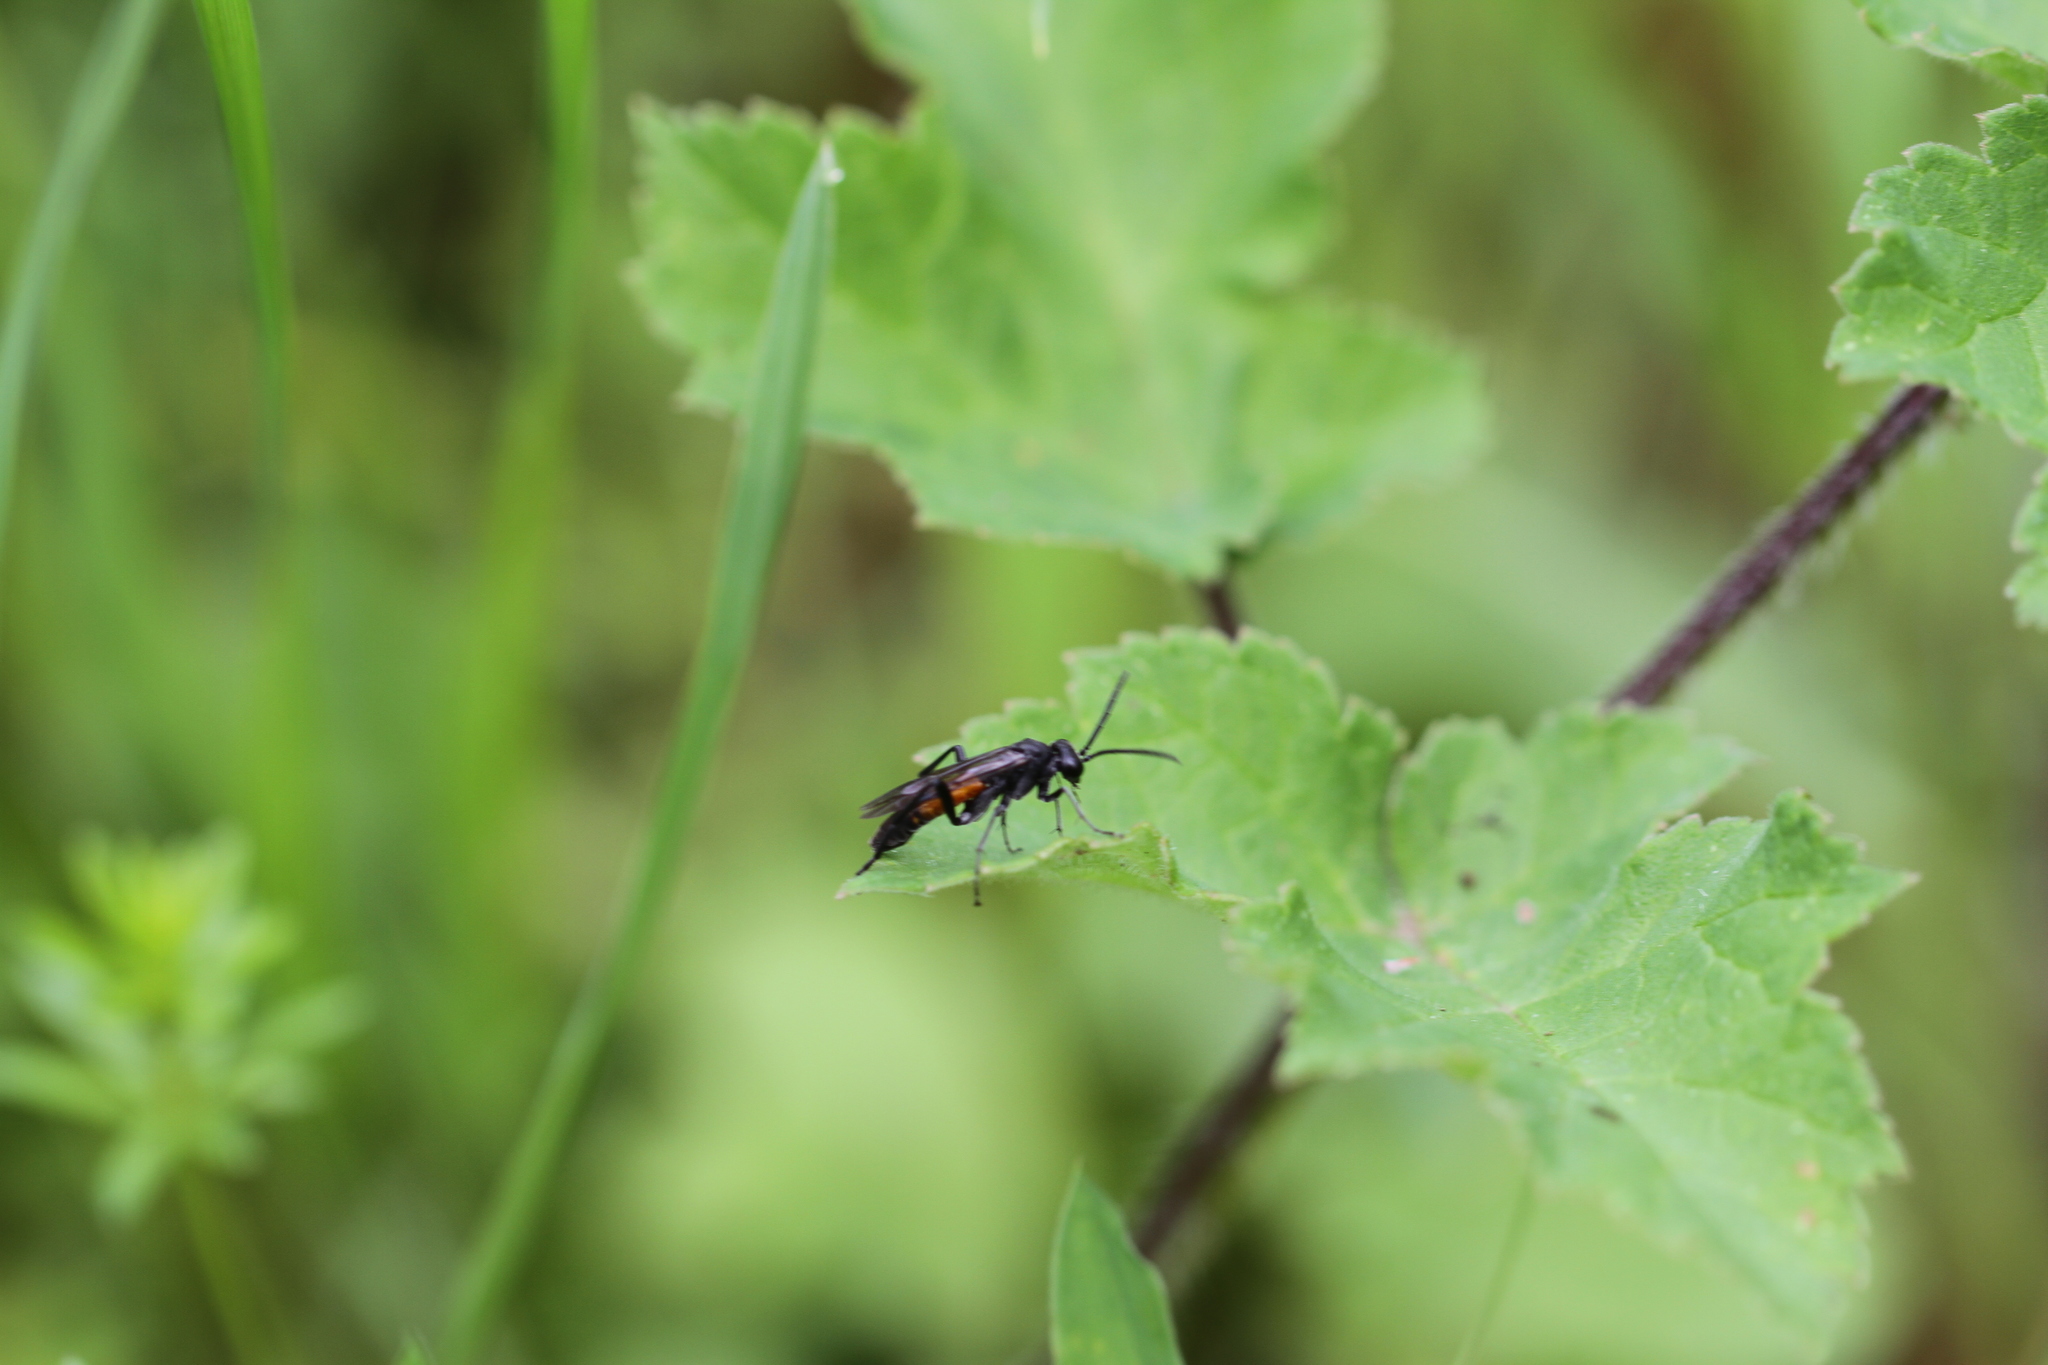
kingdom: Animalia
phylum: Arthropoda
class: Insecta
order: Hymenoptera
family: Tenthredinidae
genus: Macrophya
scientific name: Macrophya annulata
